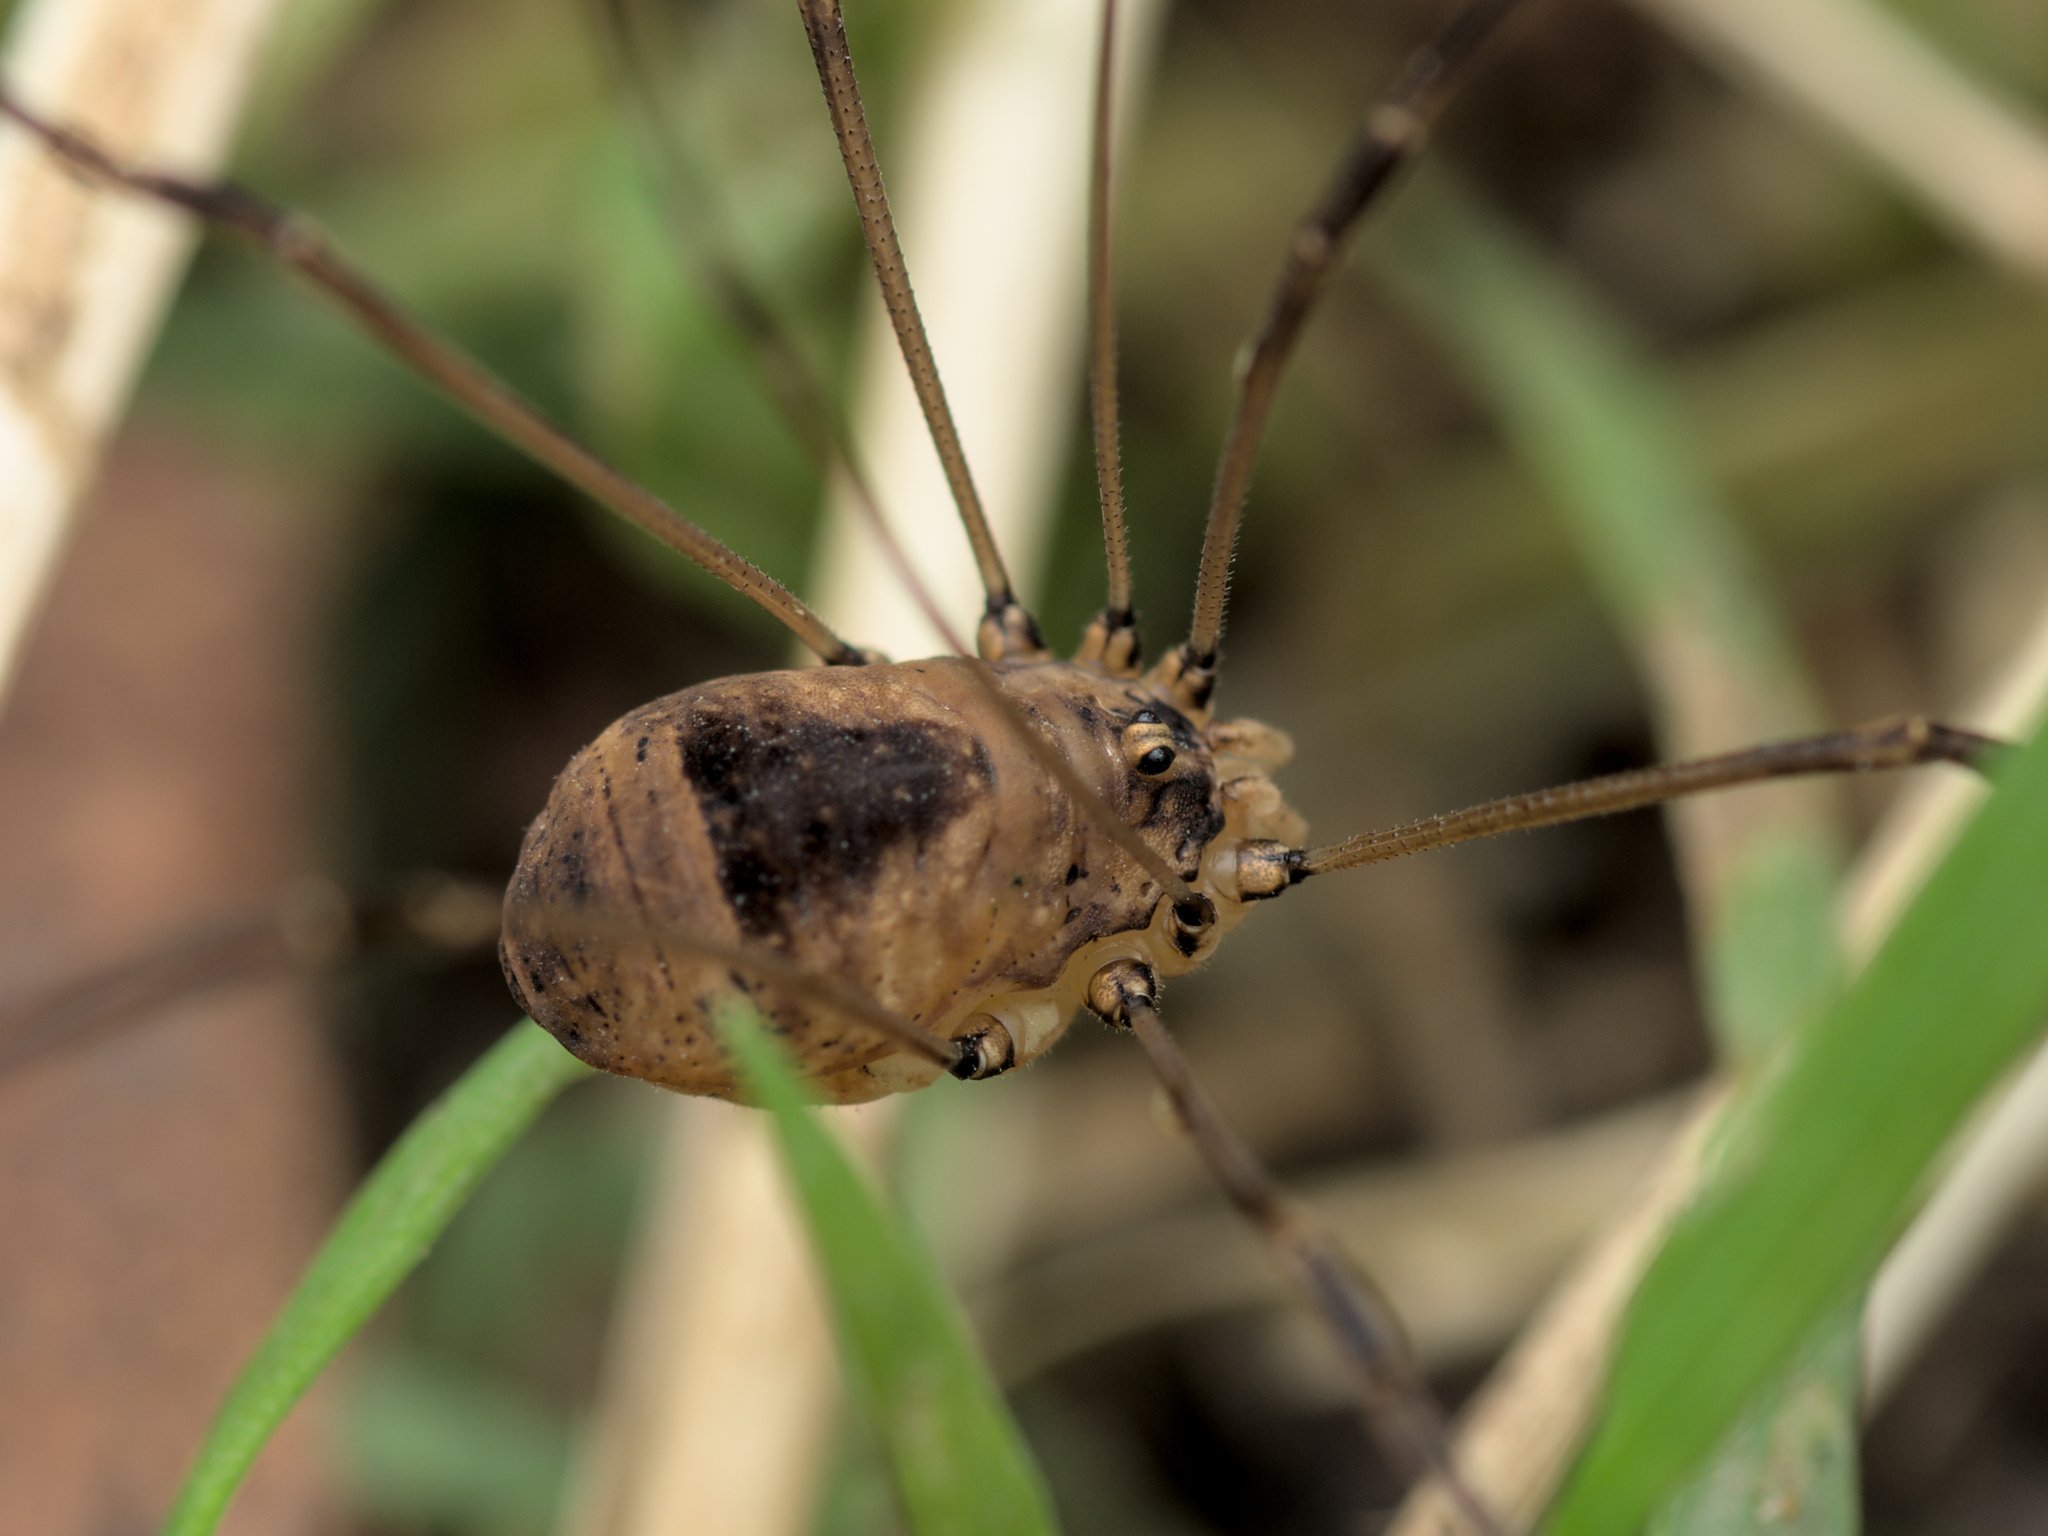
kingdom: Animalia
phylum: Arthropoda
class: Arachnida
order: Opiliones
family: Sclerosomatidae
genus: Leiobunum
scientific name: Leiobunum blackwalli
